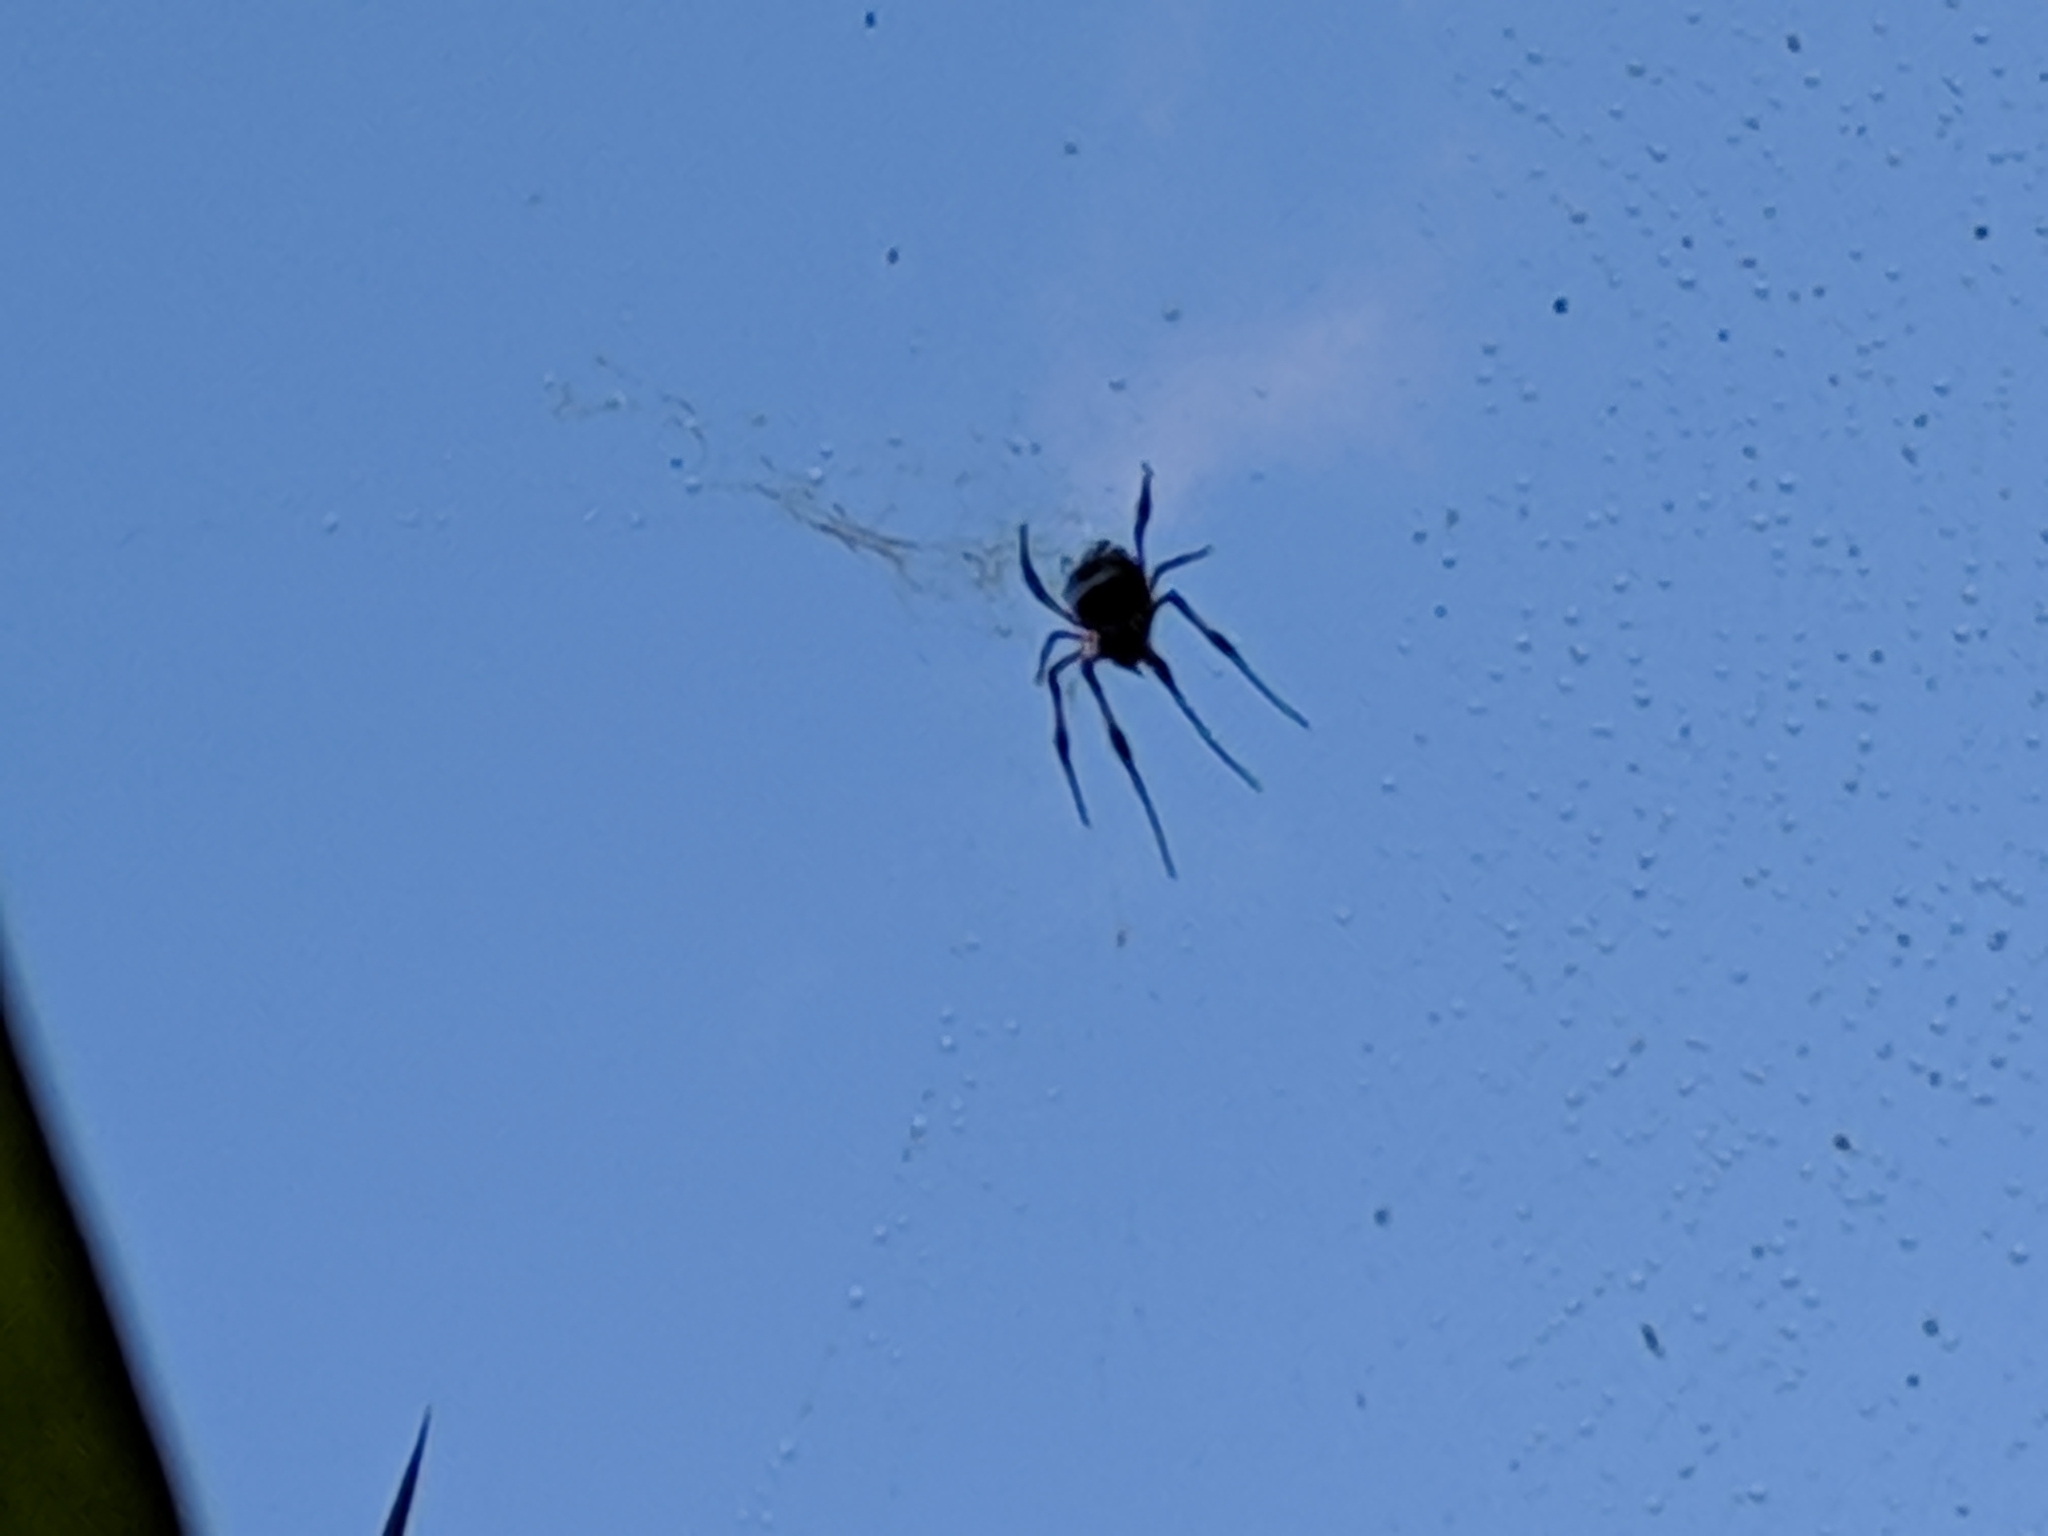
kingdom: Animalia
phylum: Arthropoda
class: Arachnida
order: Araneae
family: Araneidae
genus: Trichonephila
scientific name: Trichonephila inaurata
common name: Red-legged golden orb weaver
